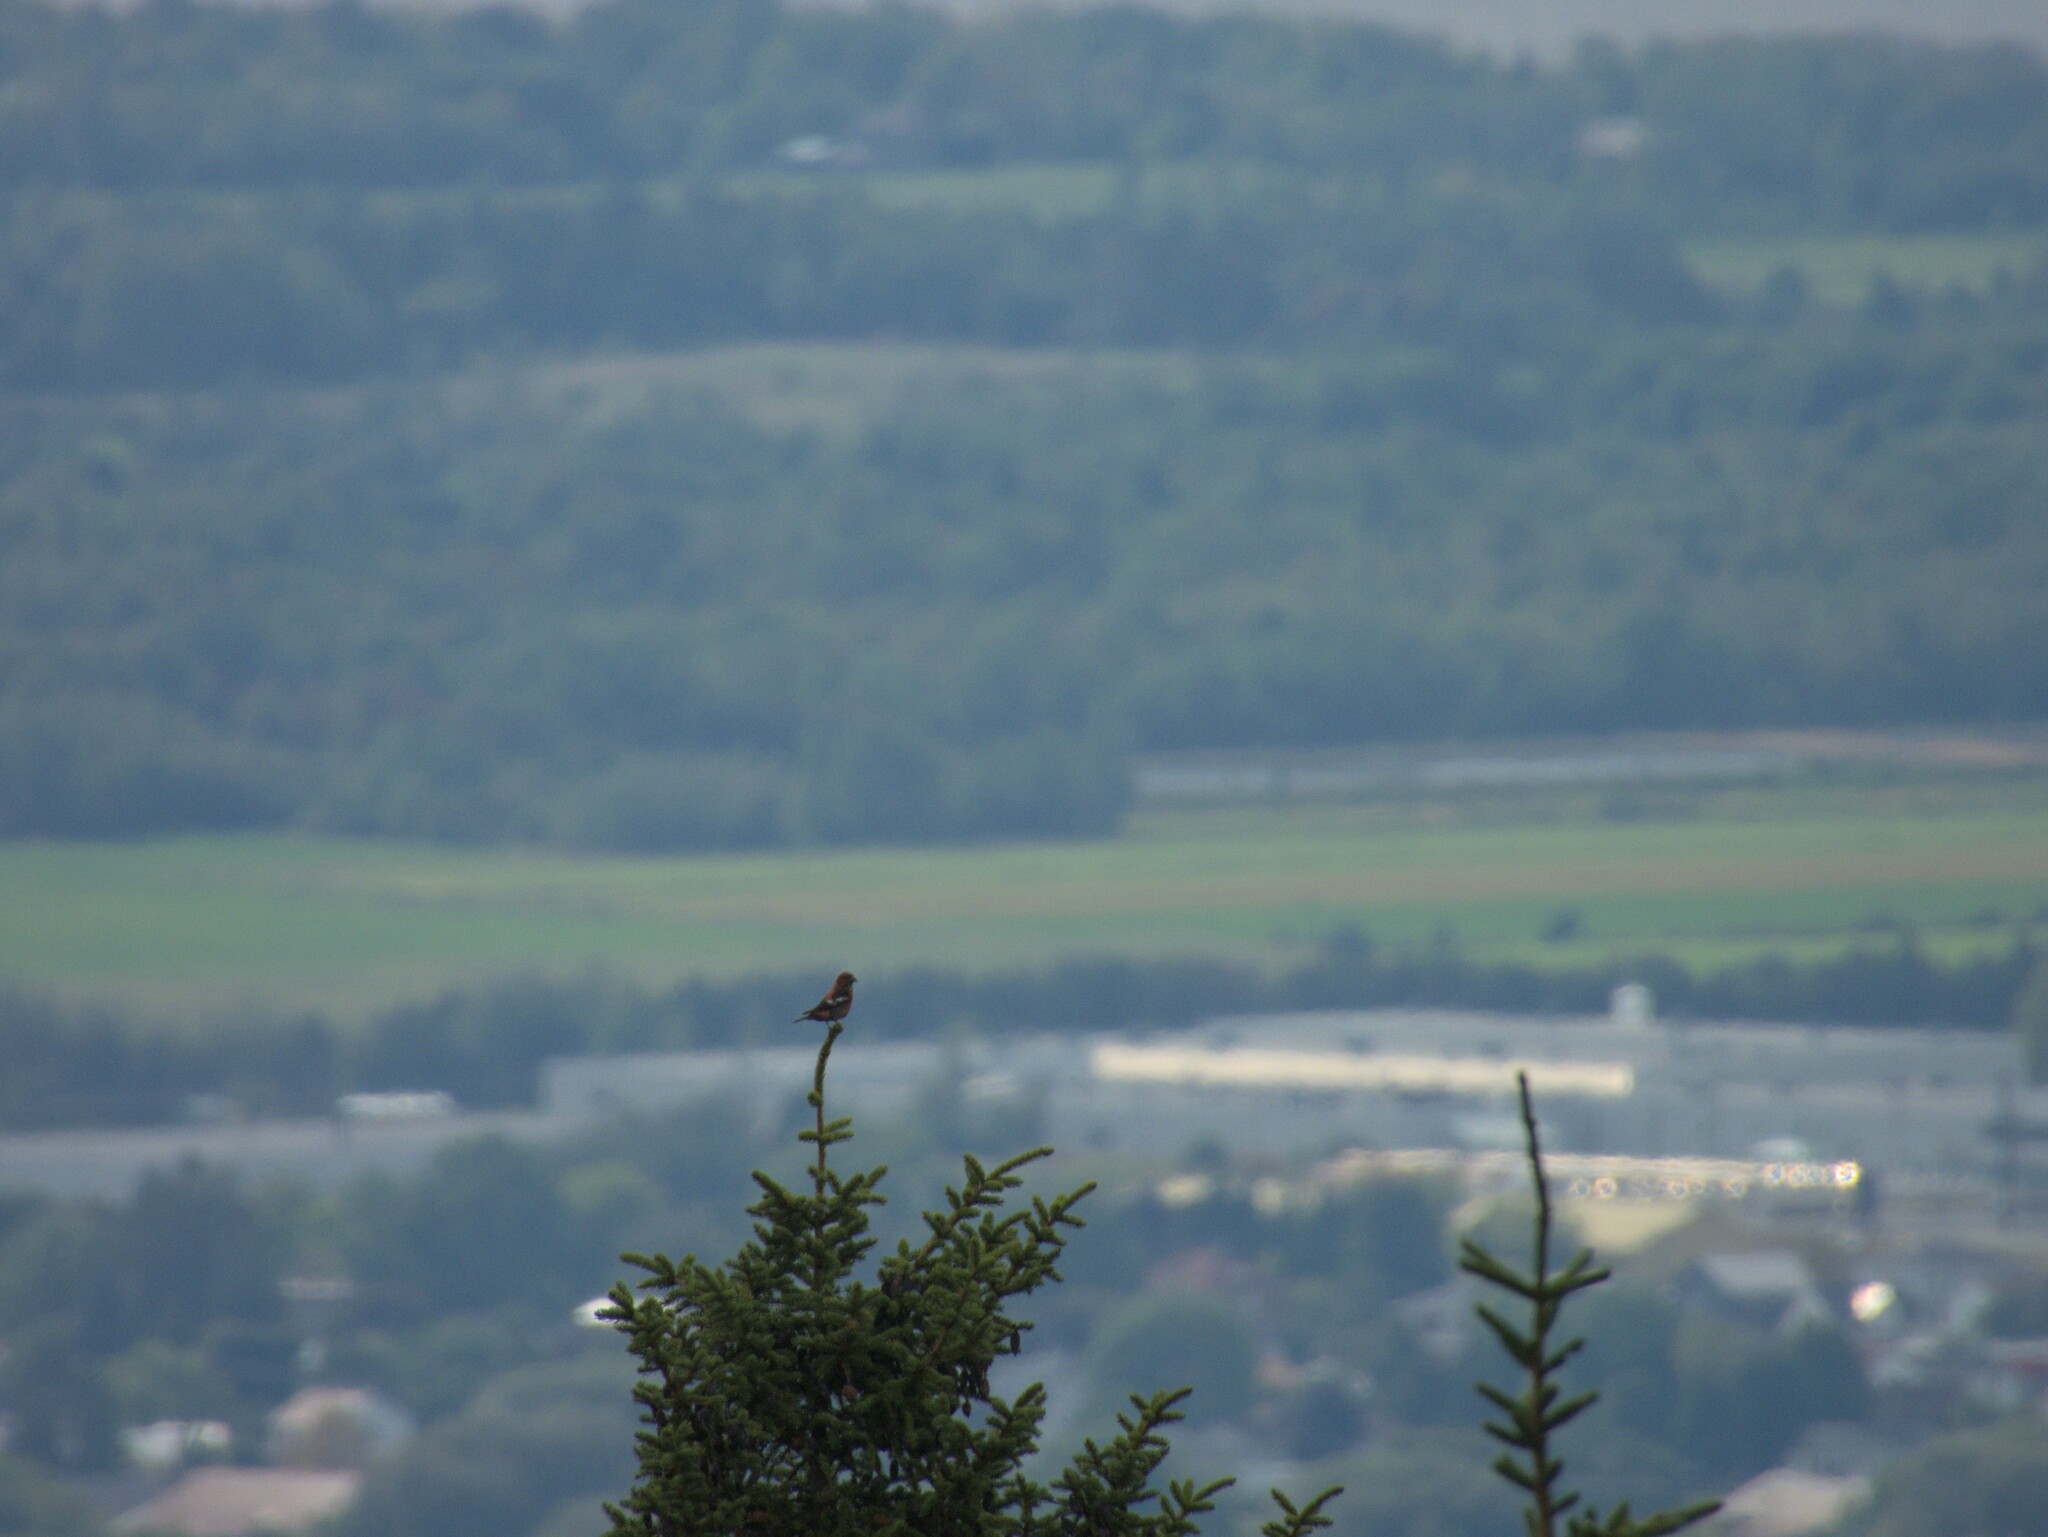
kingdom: Animalia
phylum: Chordata
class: Aves
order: Passeriformes
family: Fringillidae
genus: Loxia
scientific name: Loxia leucoptera
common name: Two-barred crossbill
